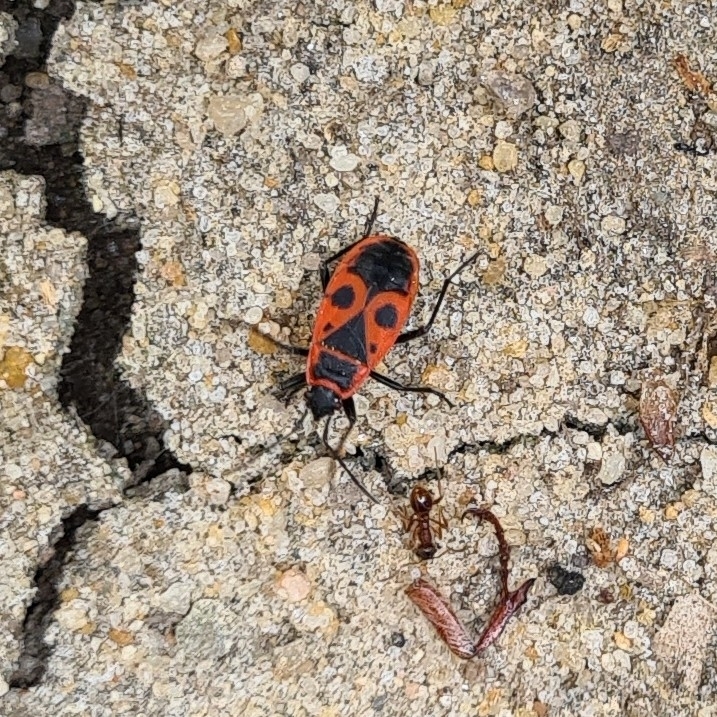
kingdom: Animalia
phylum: Arthropoda
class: Insecta
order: Hemiptera
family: Pyrrhocoridae
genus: Pyrrhocoris
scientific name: Pyrrhocoris apterus
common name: Firebug
